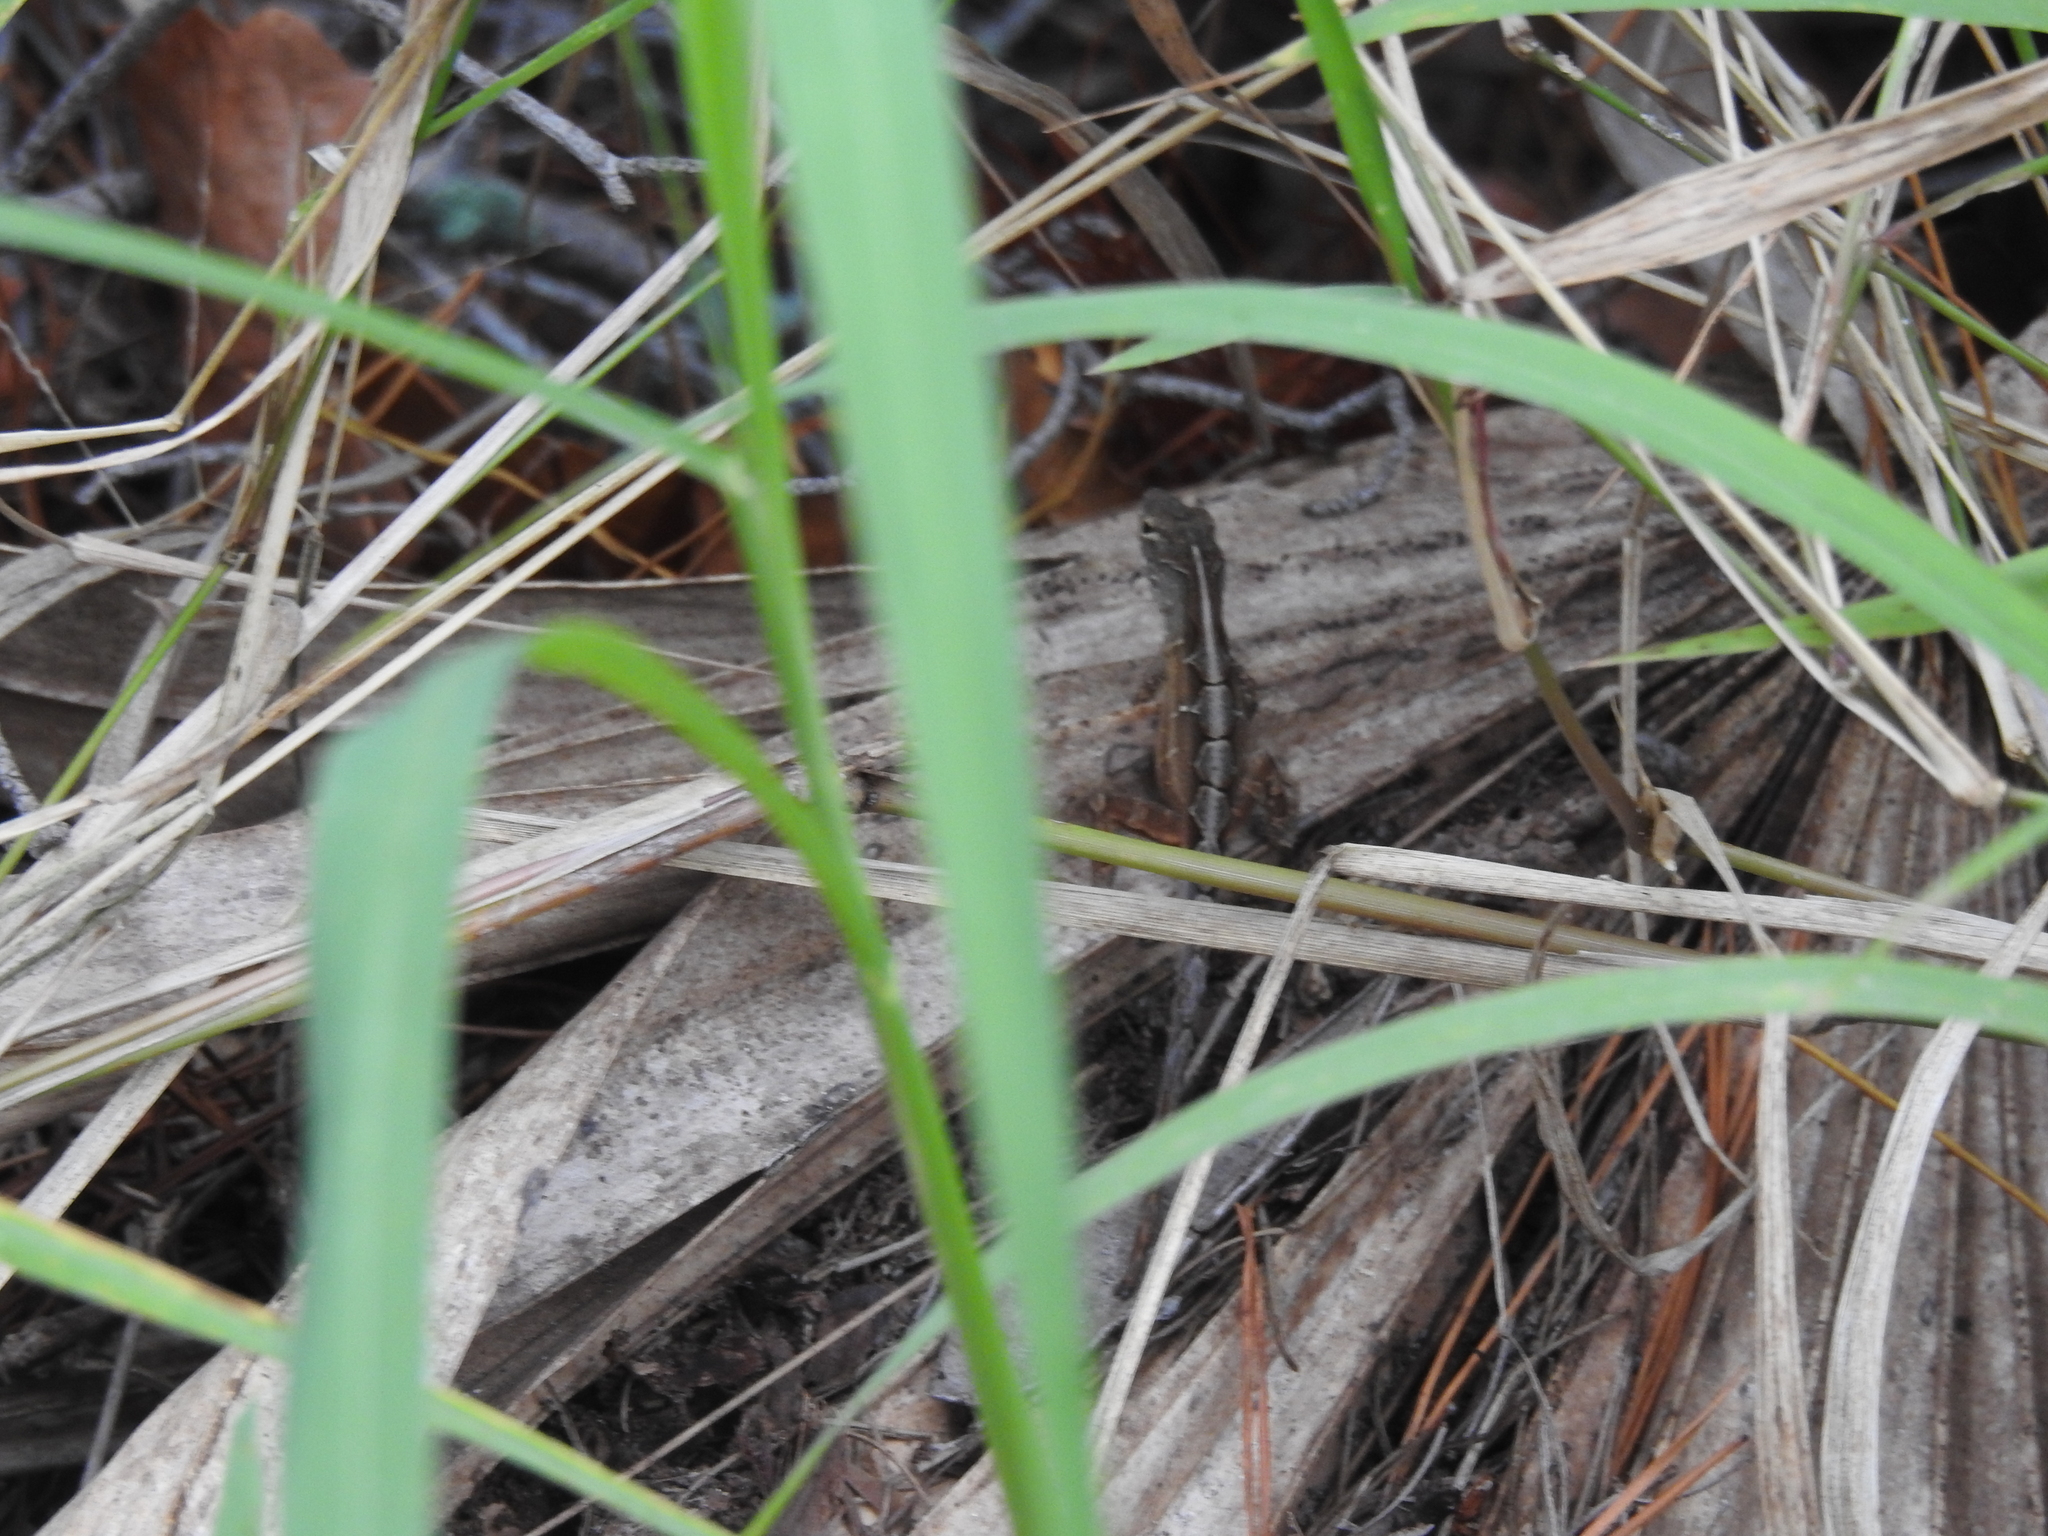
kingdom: Animalia
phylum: Chordata
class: Squamata
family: Dactyloidae
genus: Anolis
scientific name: Anolis sagrei
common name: Brown anole
